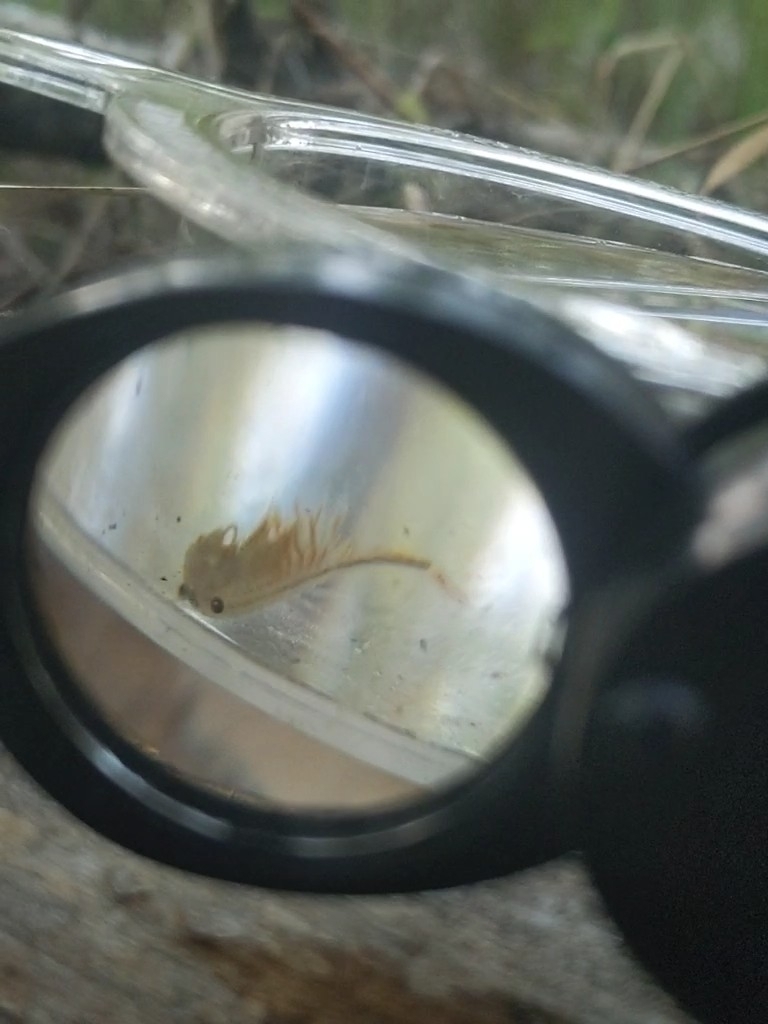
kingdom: Animalia
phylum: Arthropoda
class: Branchiopoda
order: Anostraca
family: Chirocephalidae
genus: Eubranchipus
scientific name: Eubranchipus bundyi
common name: Knob-lip fairy shrimp
